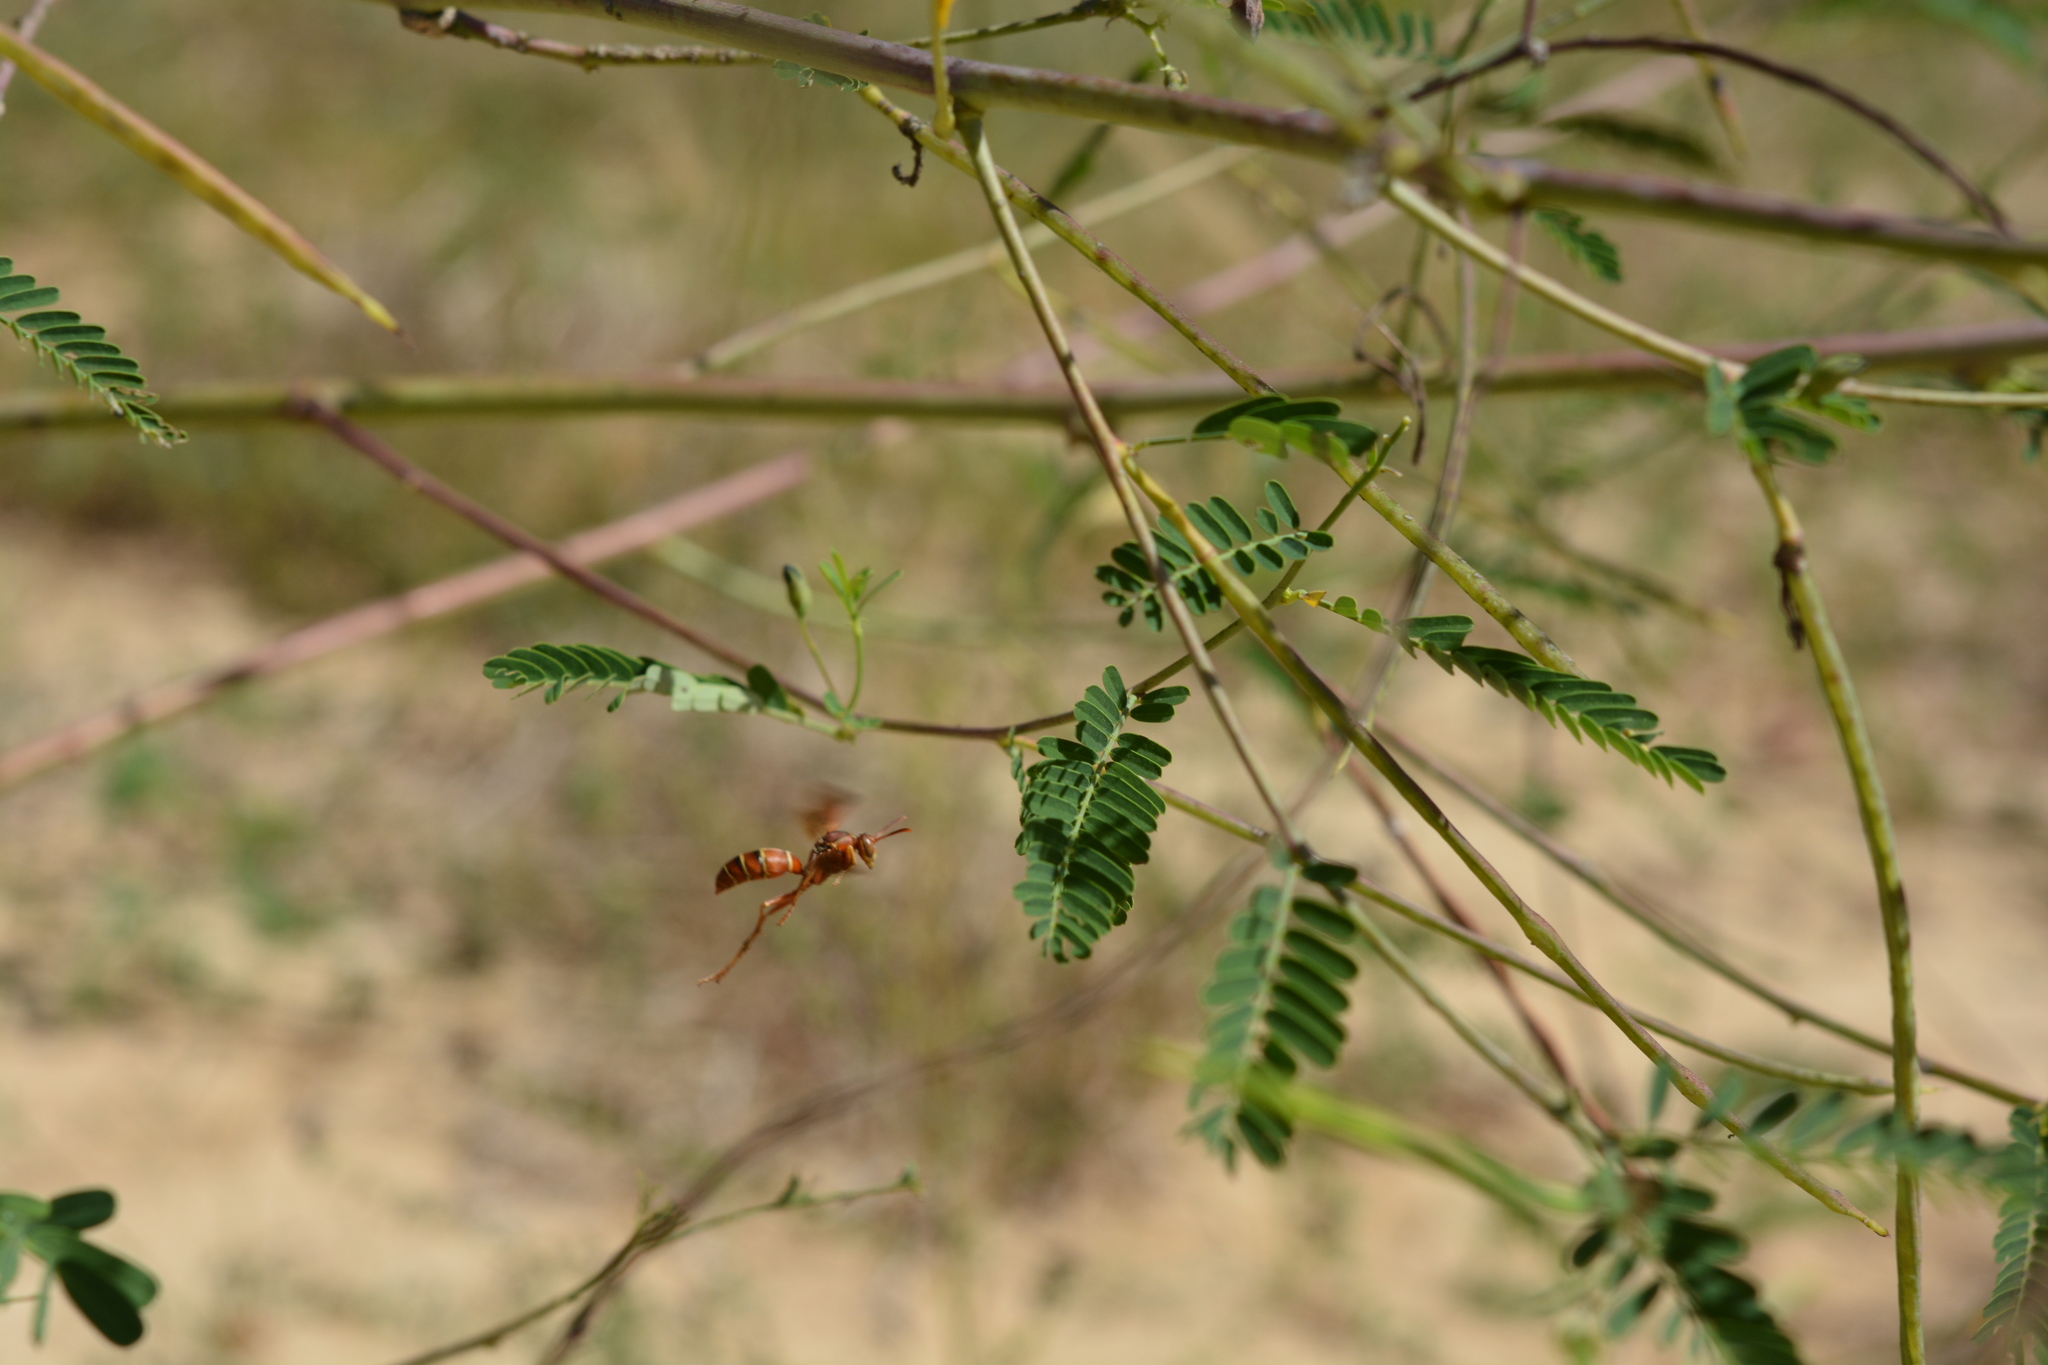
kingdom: Animalia
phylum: Arthropoda
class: Insecta
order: Hymenoptera
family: Eumenidae
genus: Polistes
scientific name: Polistes dorsalis
